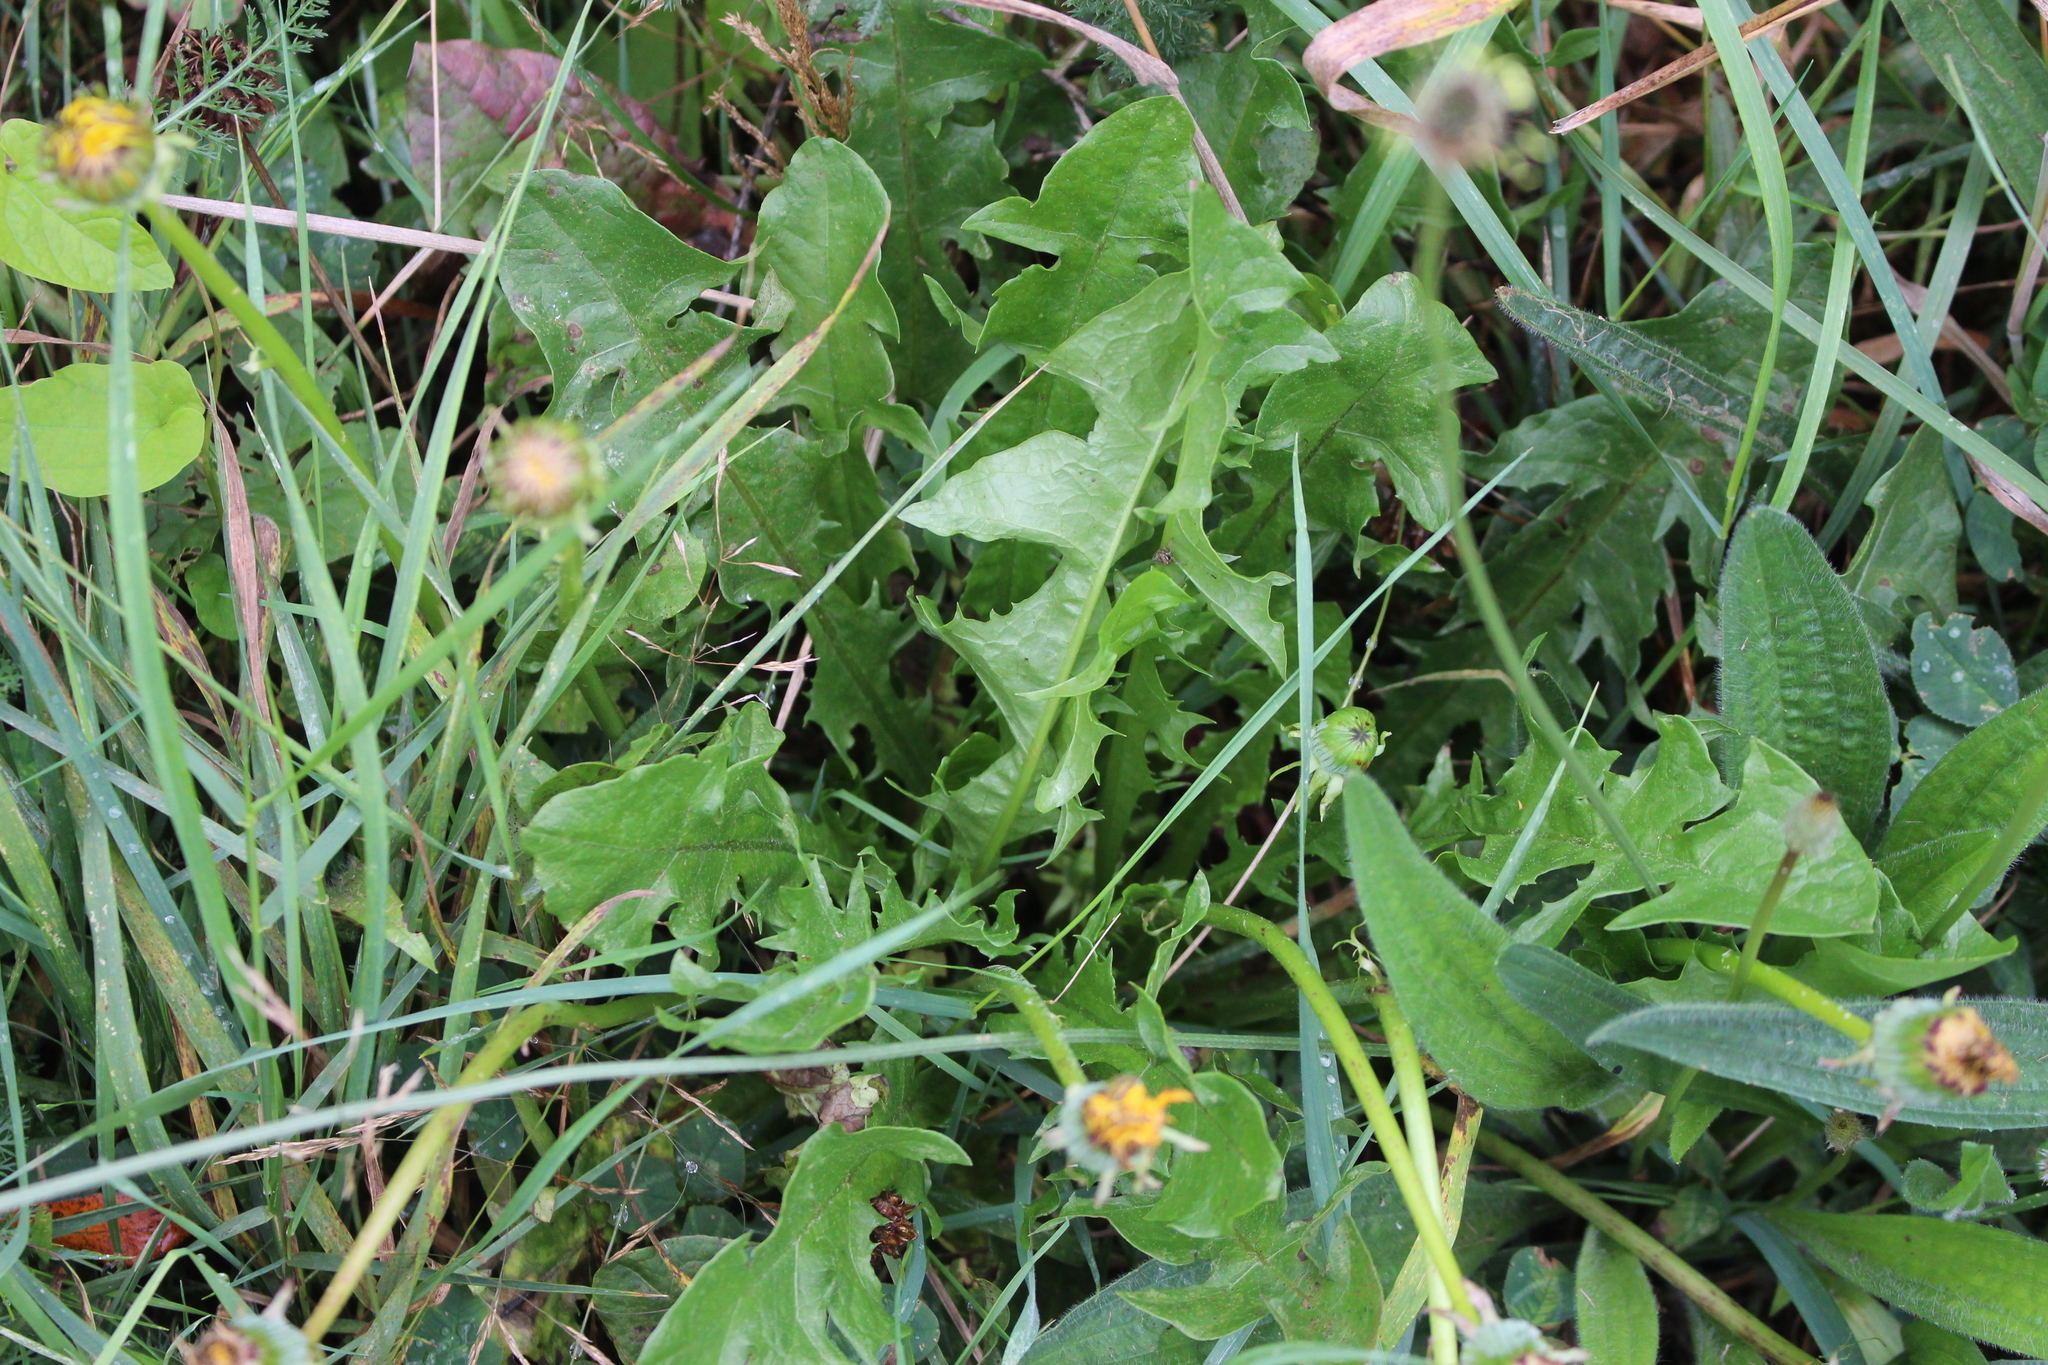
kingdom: Plantae
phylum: Tracheophyta
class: Magnoliopsida
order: Asterales
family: Asteraceae
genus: Taraxacum
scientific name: Taraxacum officinale
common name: Common dandelion
